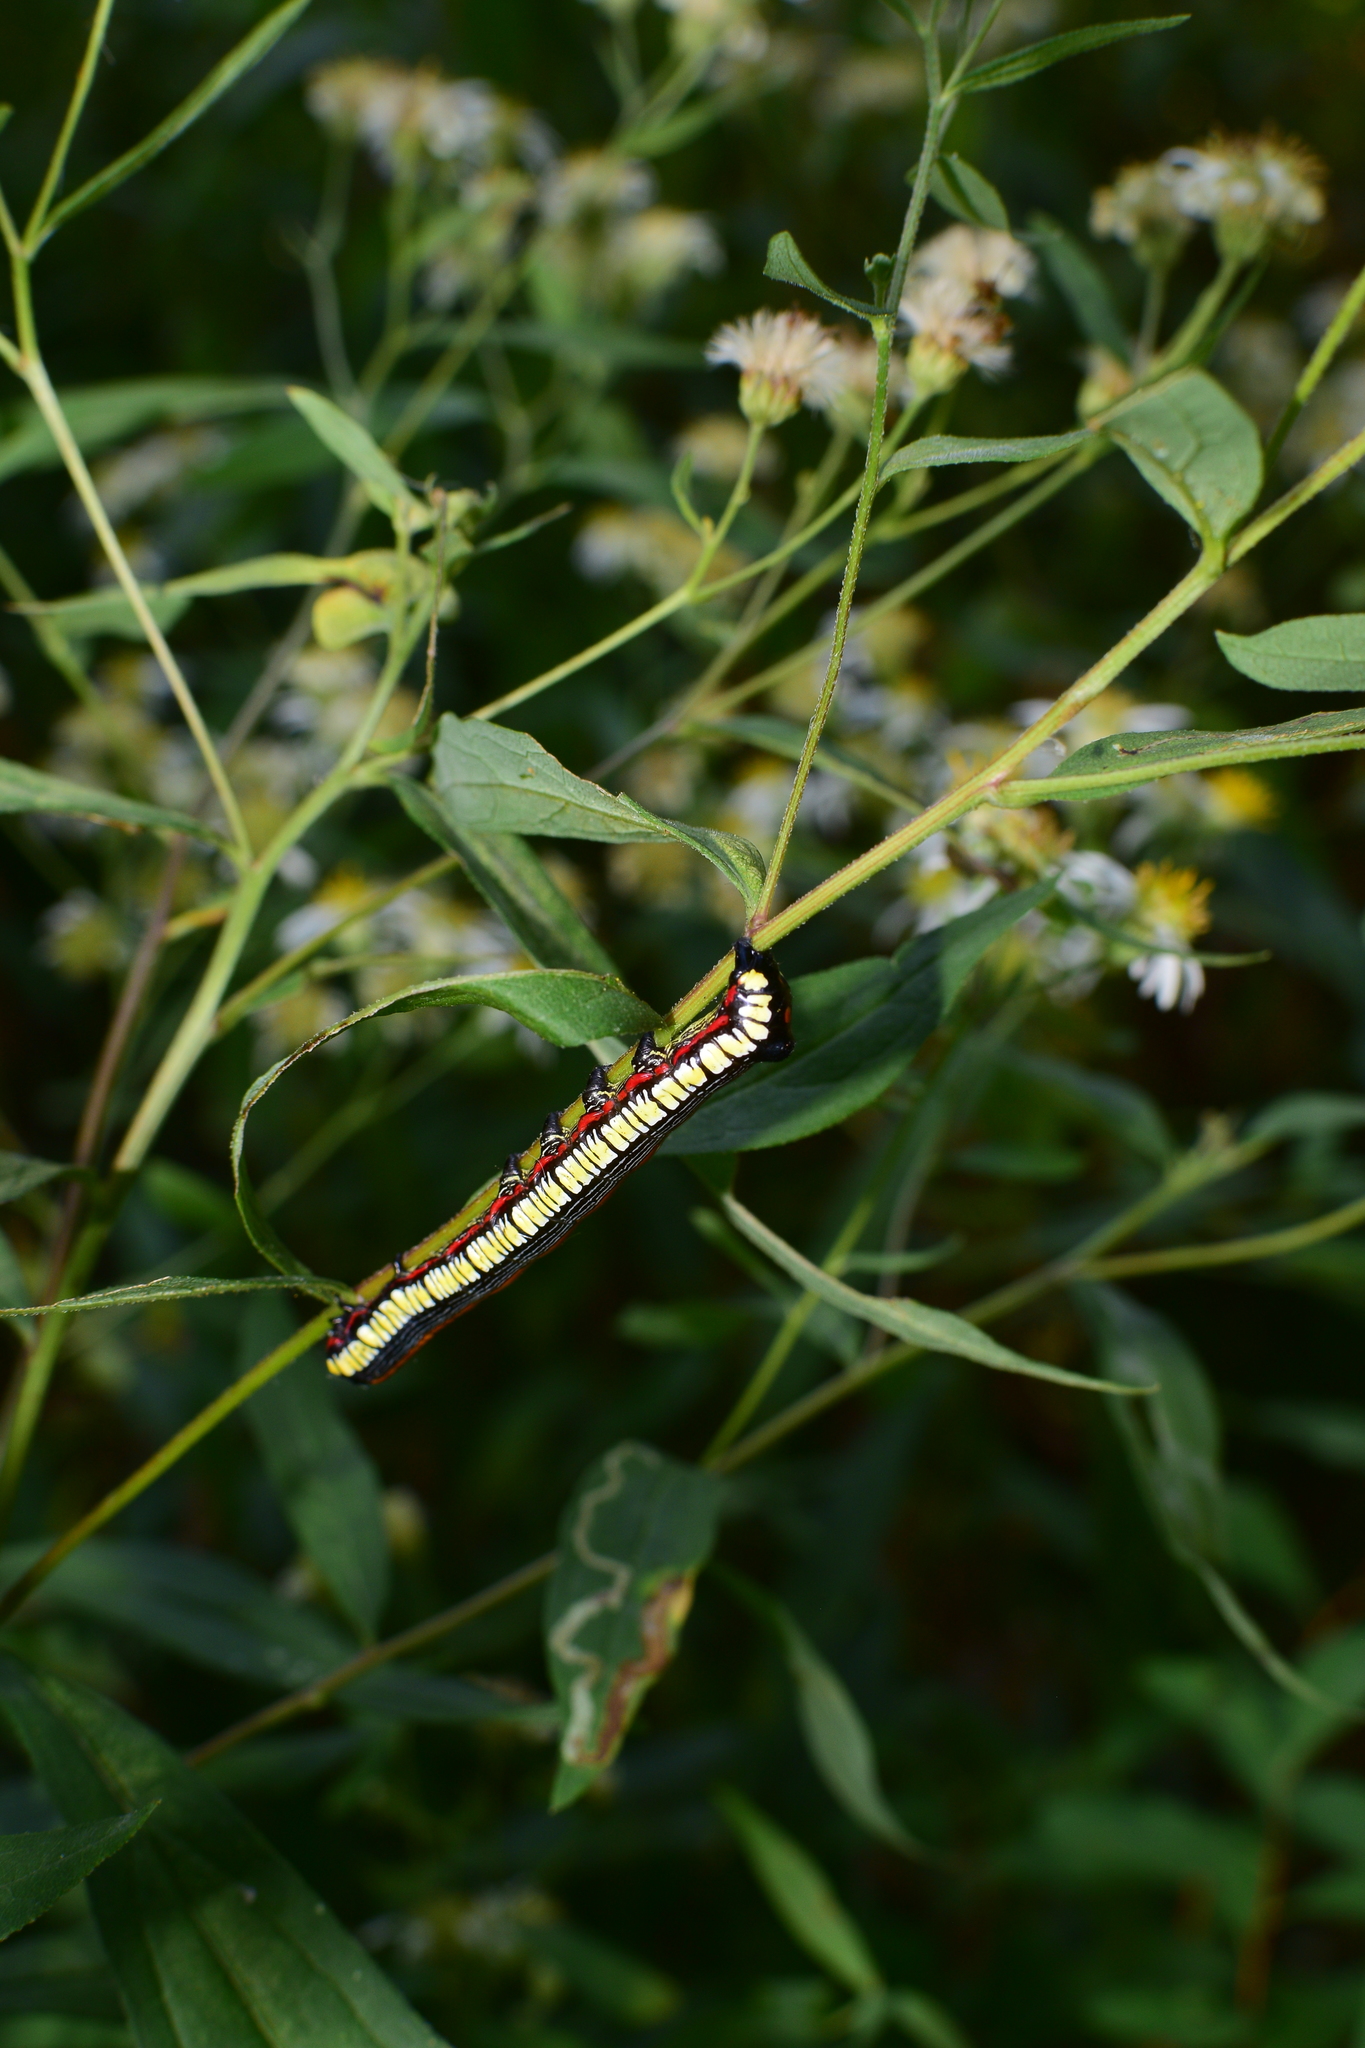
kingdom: Animalia
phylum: Arthropoda
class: Insecta
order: Lepidoptera
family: Noctuidae
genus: Cucullia
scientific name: Cucullia convexipennis
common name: Brown-hooded owlet
